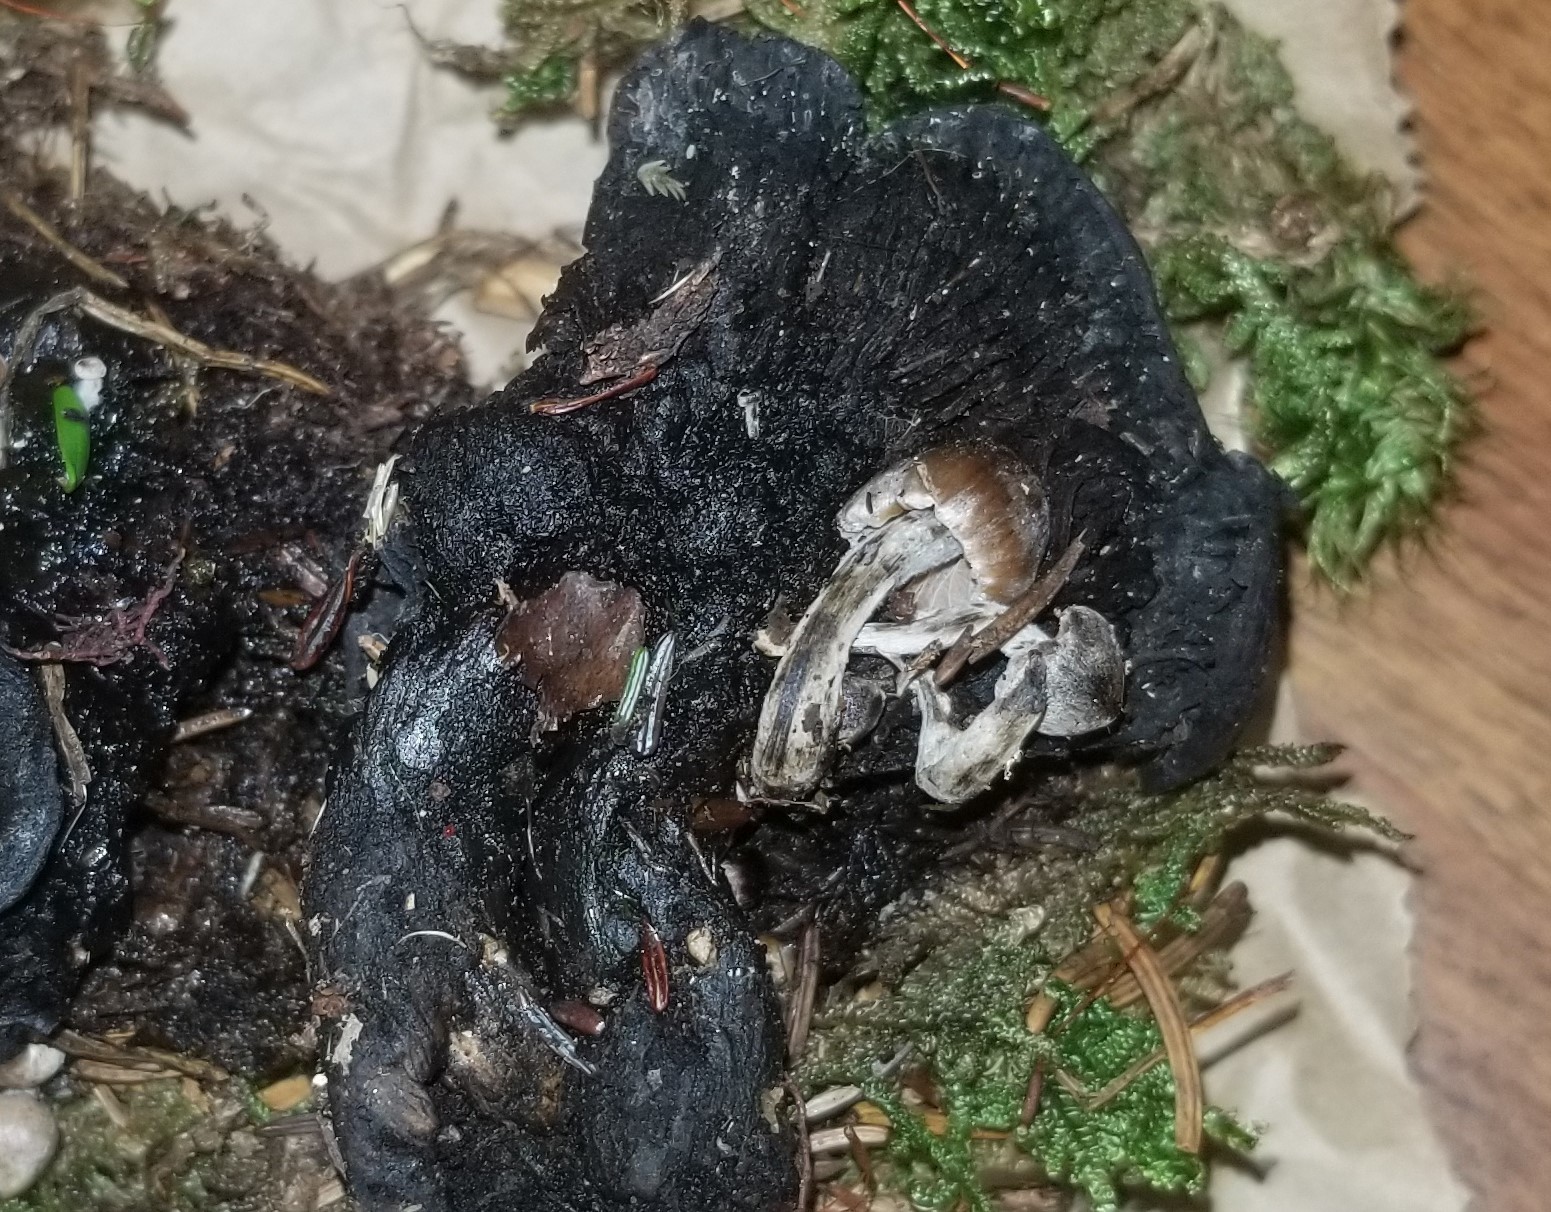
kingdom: Fungi
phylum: Basidiomycota
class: Agaricomycetes
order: Agaricales
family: Lyophyllaceae
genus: Asterophora
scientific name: Asterophora parasitica
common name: Silky piggyback
